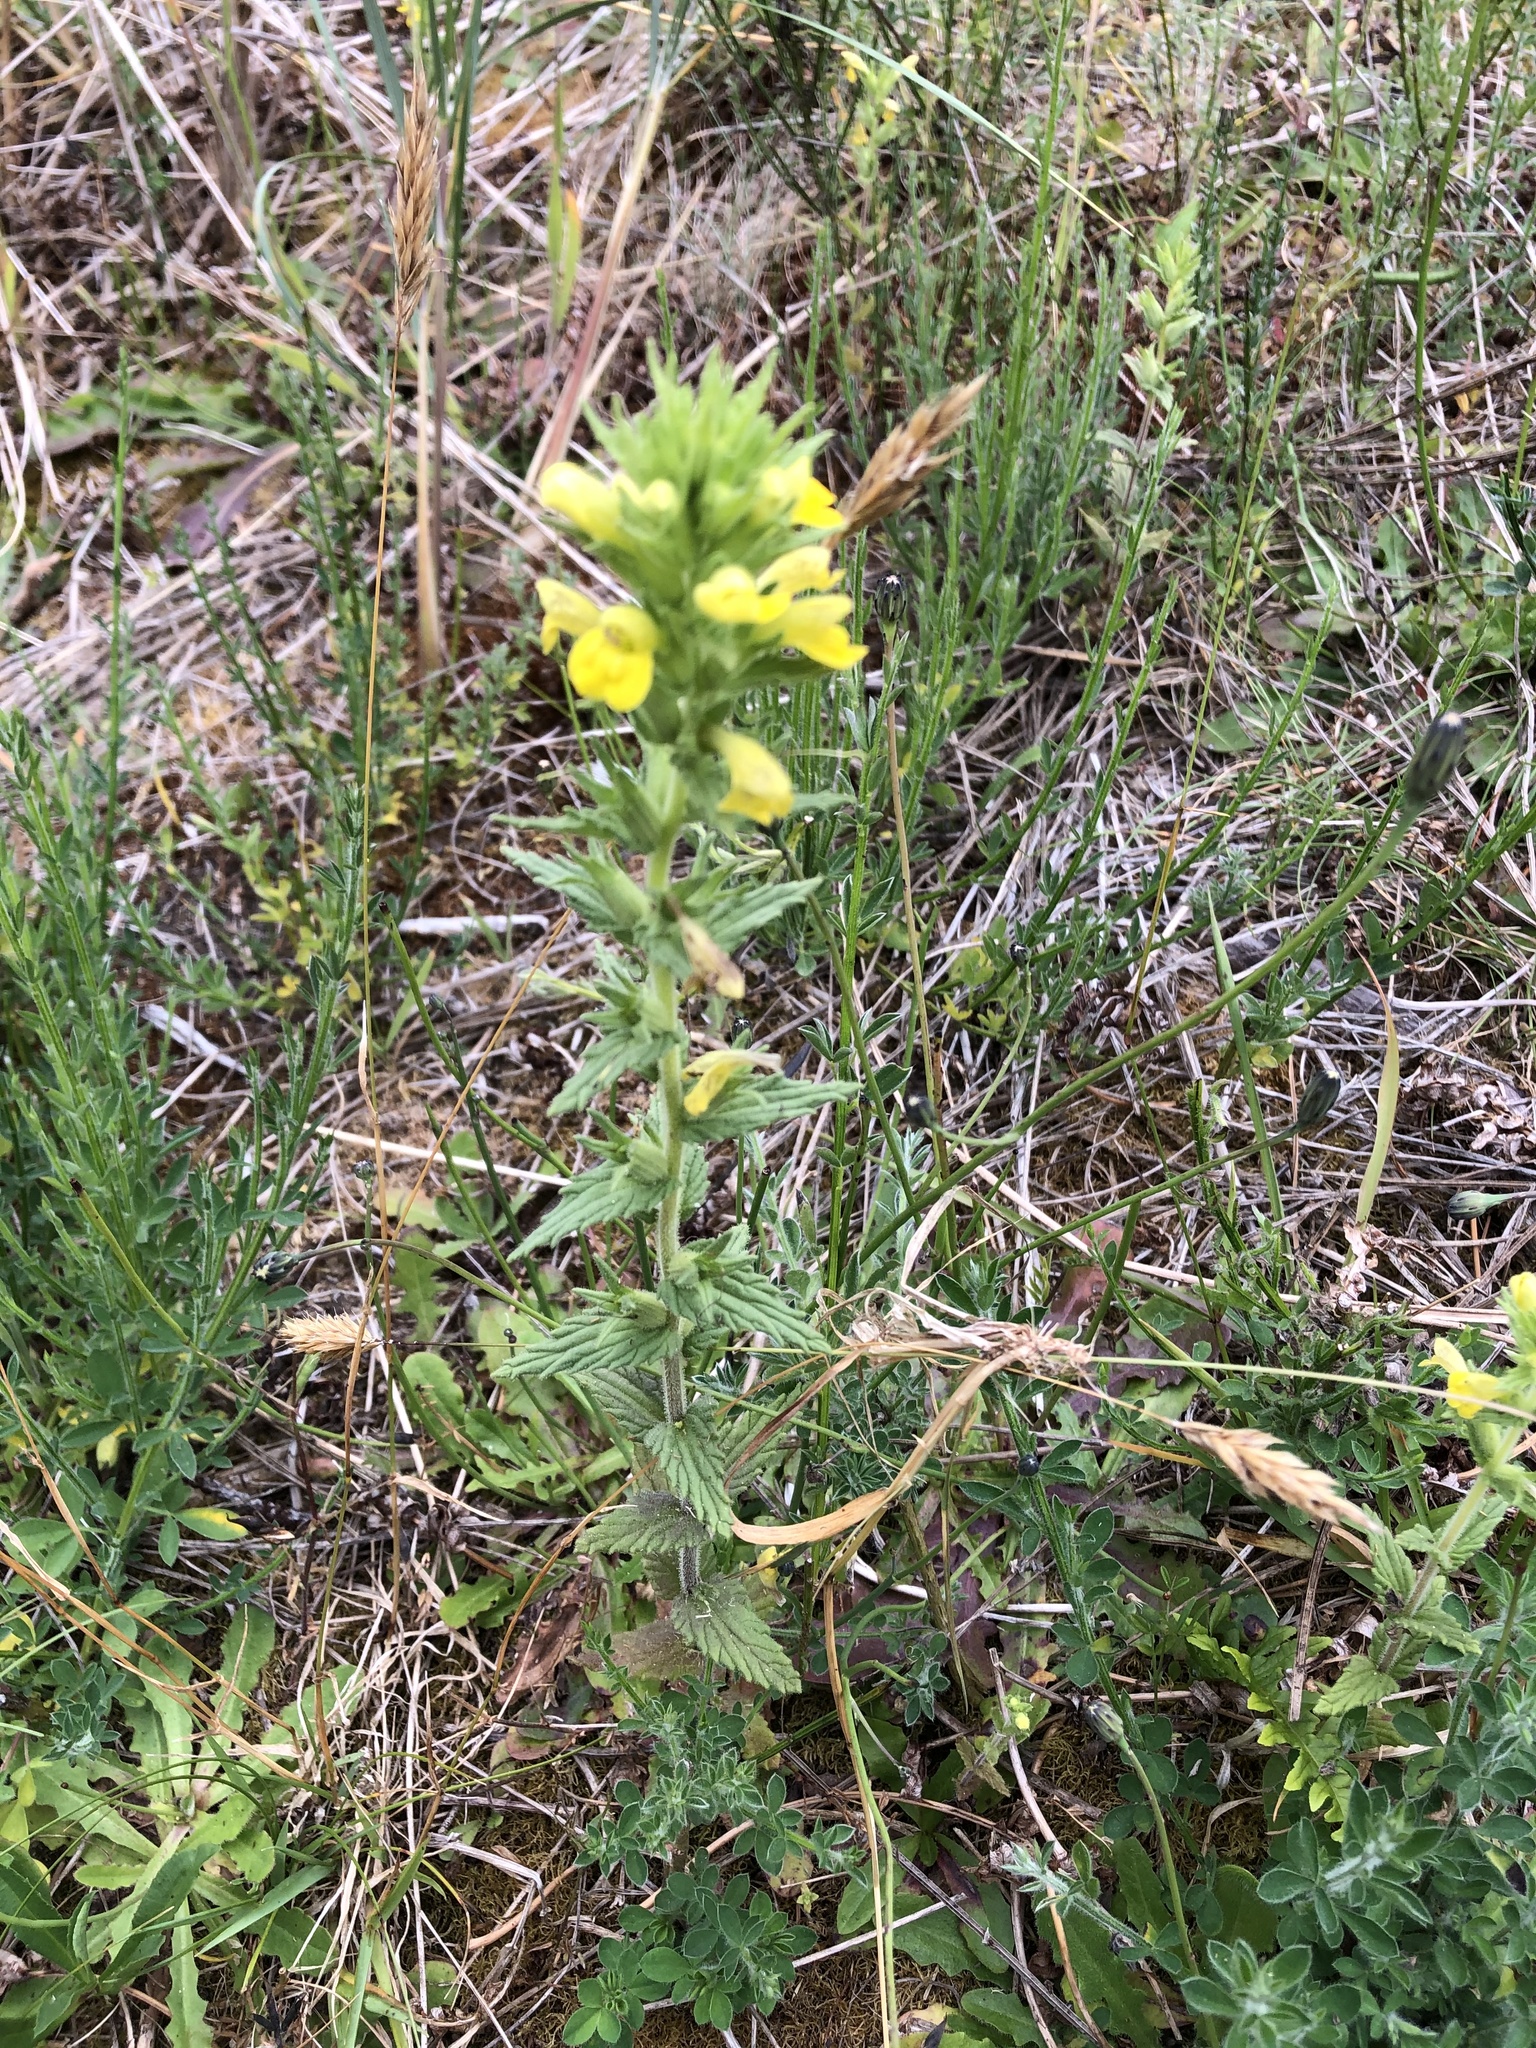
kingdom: Plantae
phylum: Tracheophyta
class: Magnoliopsida
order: Lamiales
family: Orobanchaceae
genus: Bellardia
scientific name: Bellardia viscosa
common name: Sticky parentucellia
